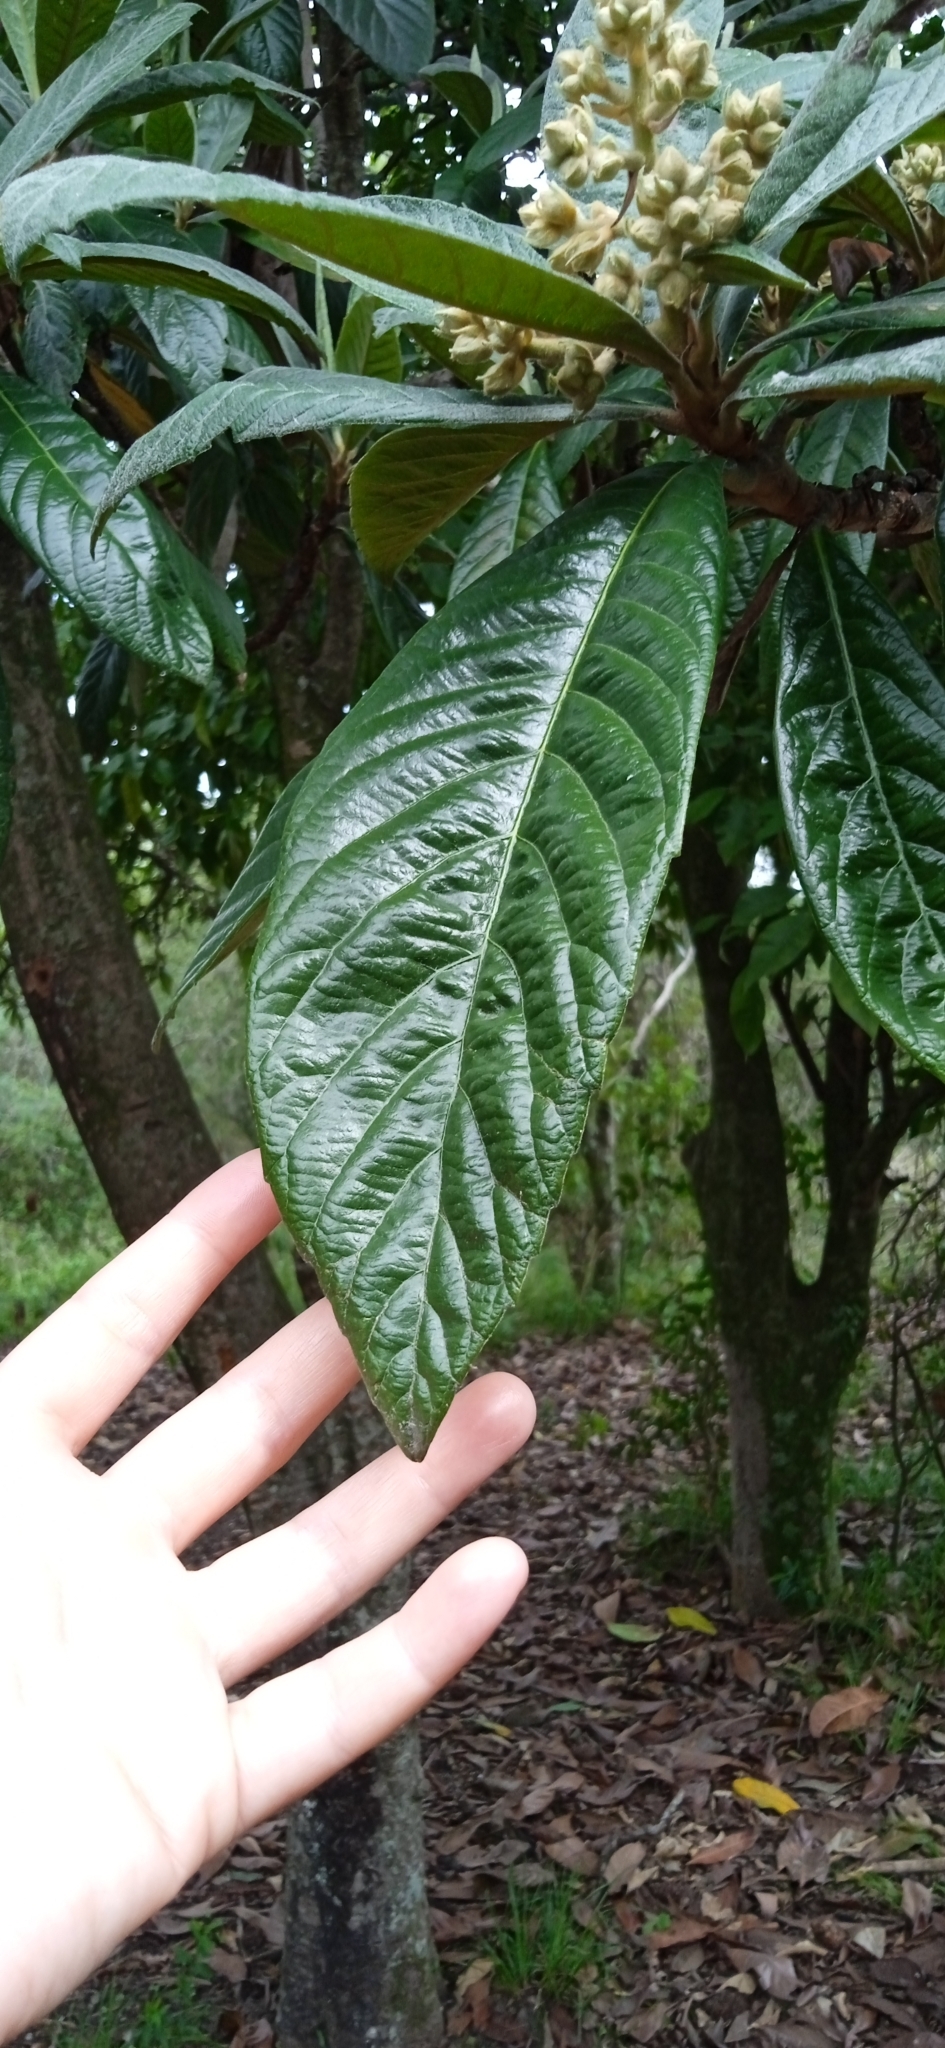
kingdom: Plantae
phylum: Tracheophyta
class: Magnoliopsida
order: Rosales
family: Rosaceae
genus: Rhaphiolepis
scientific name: Rhaphiolepis bibas
